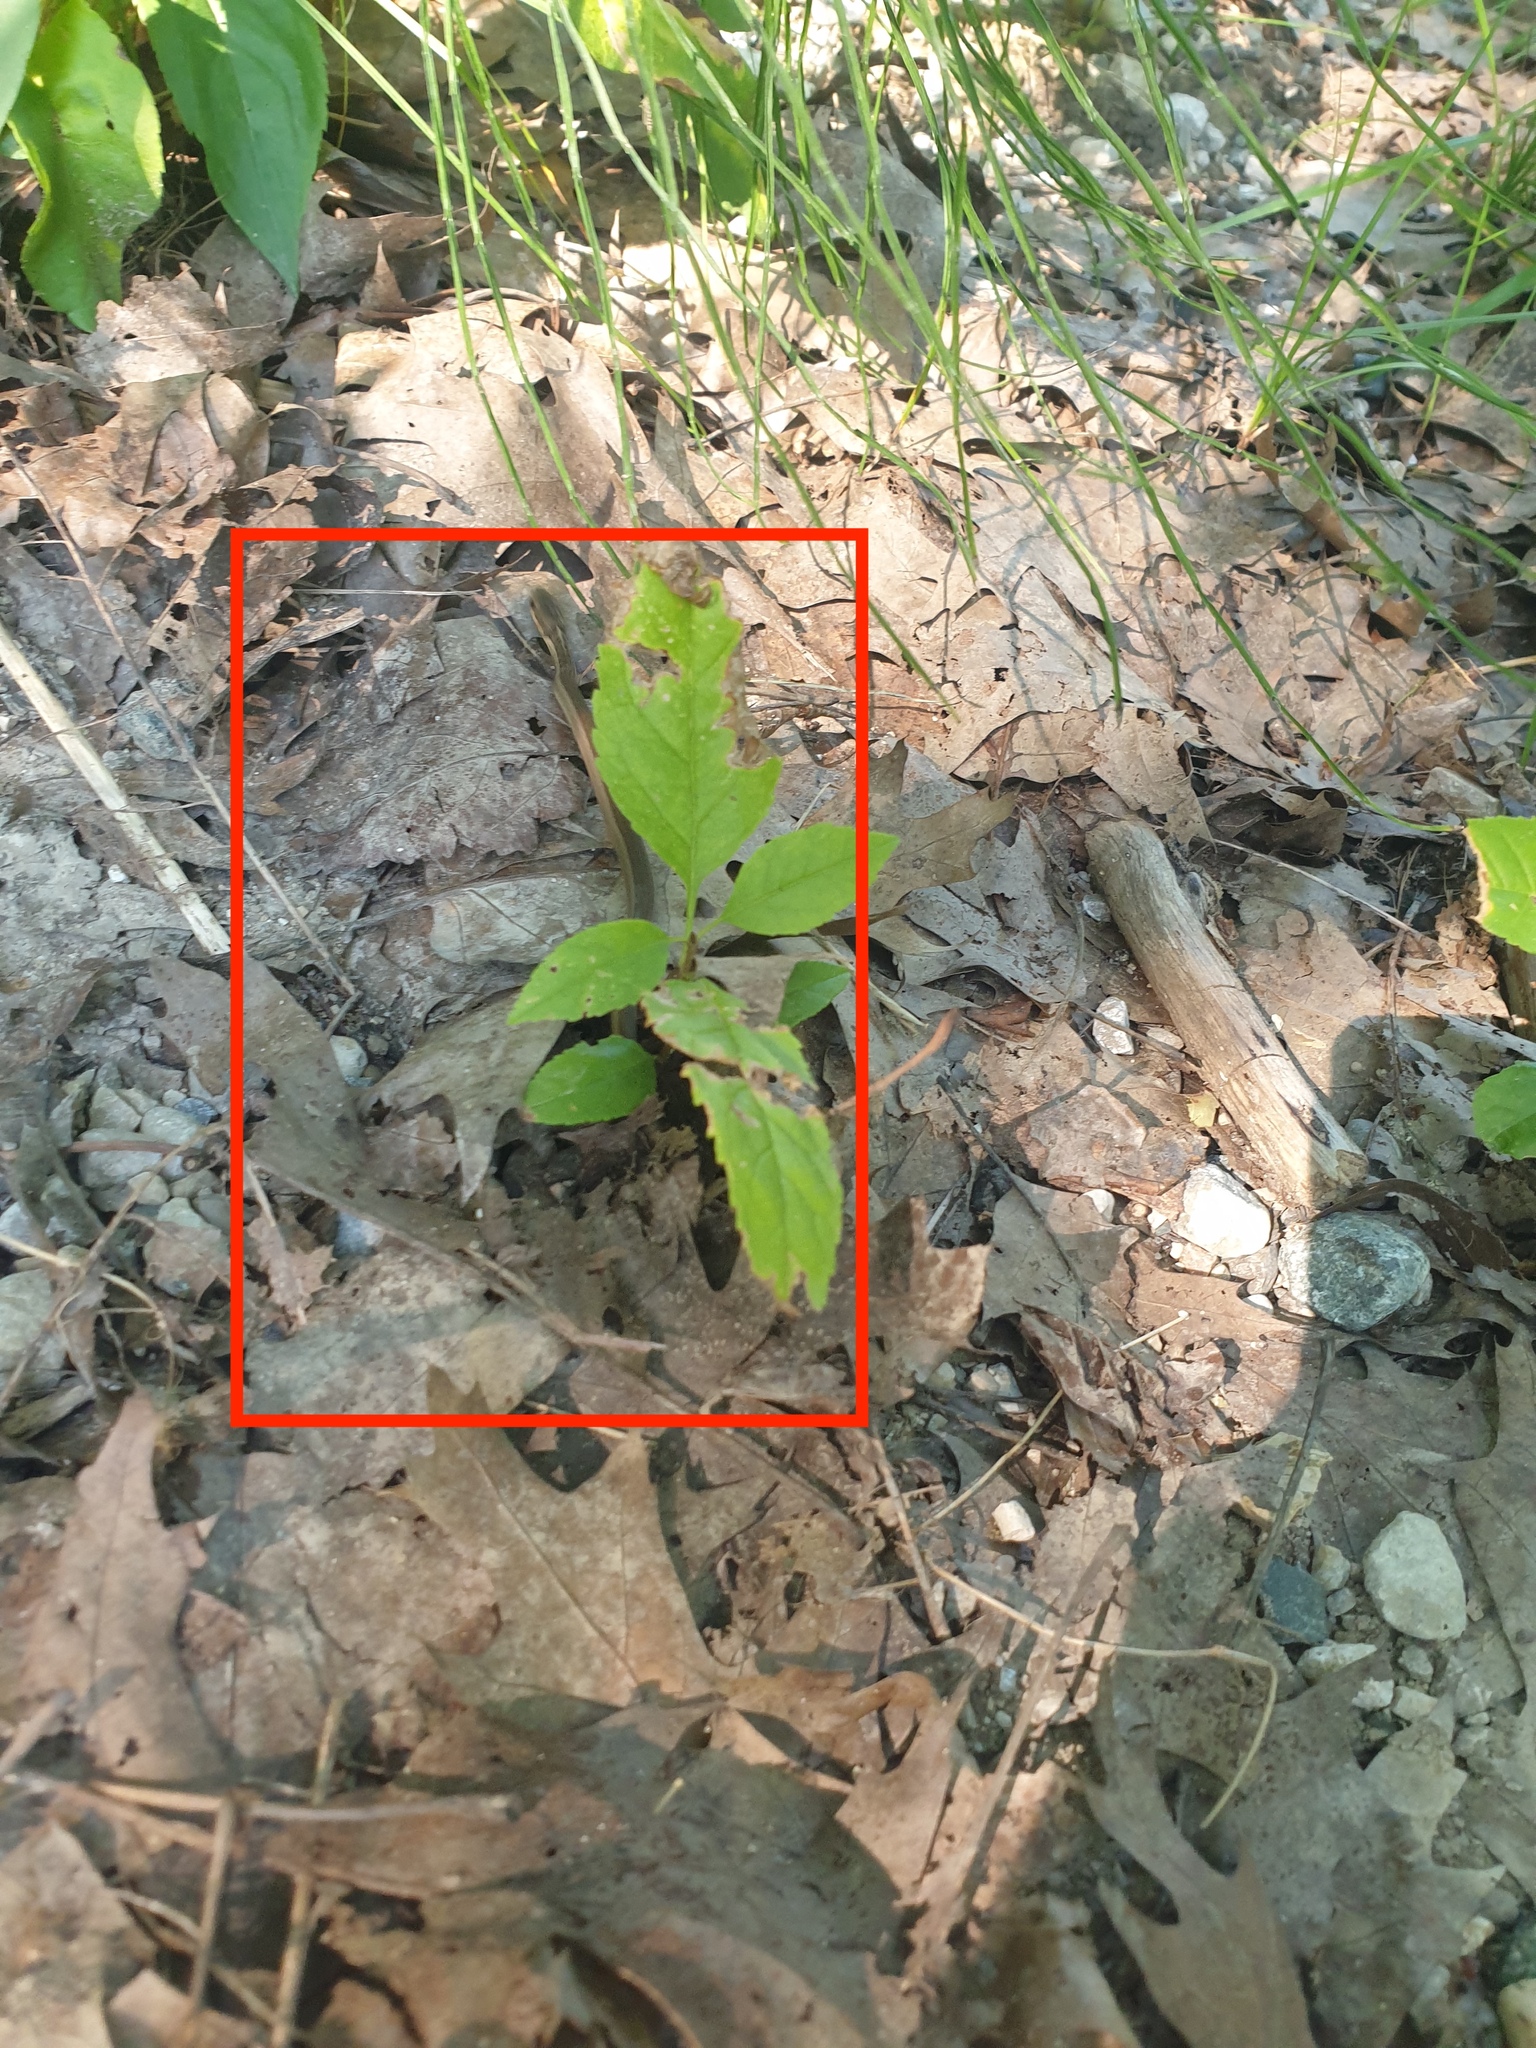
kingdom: Animalia
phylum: Chordata
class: Squamata
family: Colubridae
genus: Thamnophis
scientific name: Thamnophis sirtalis
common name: Common garter snake
